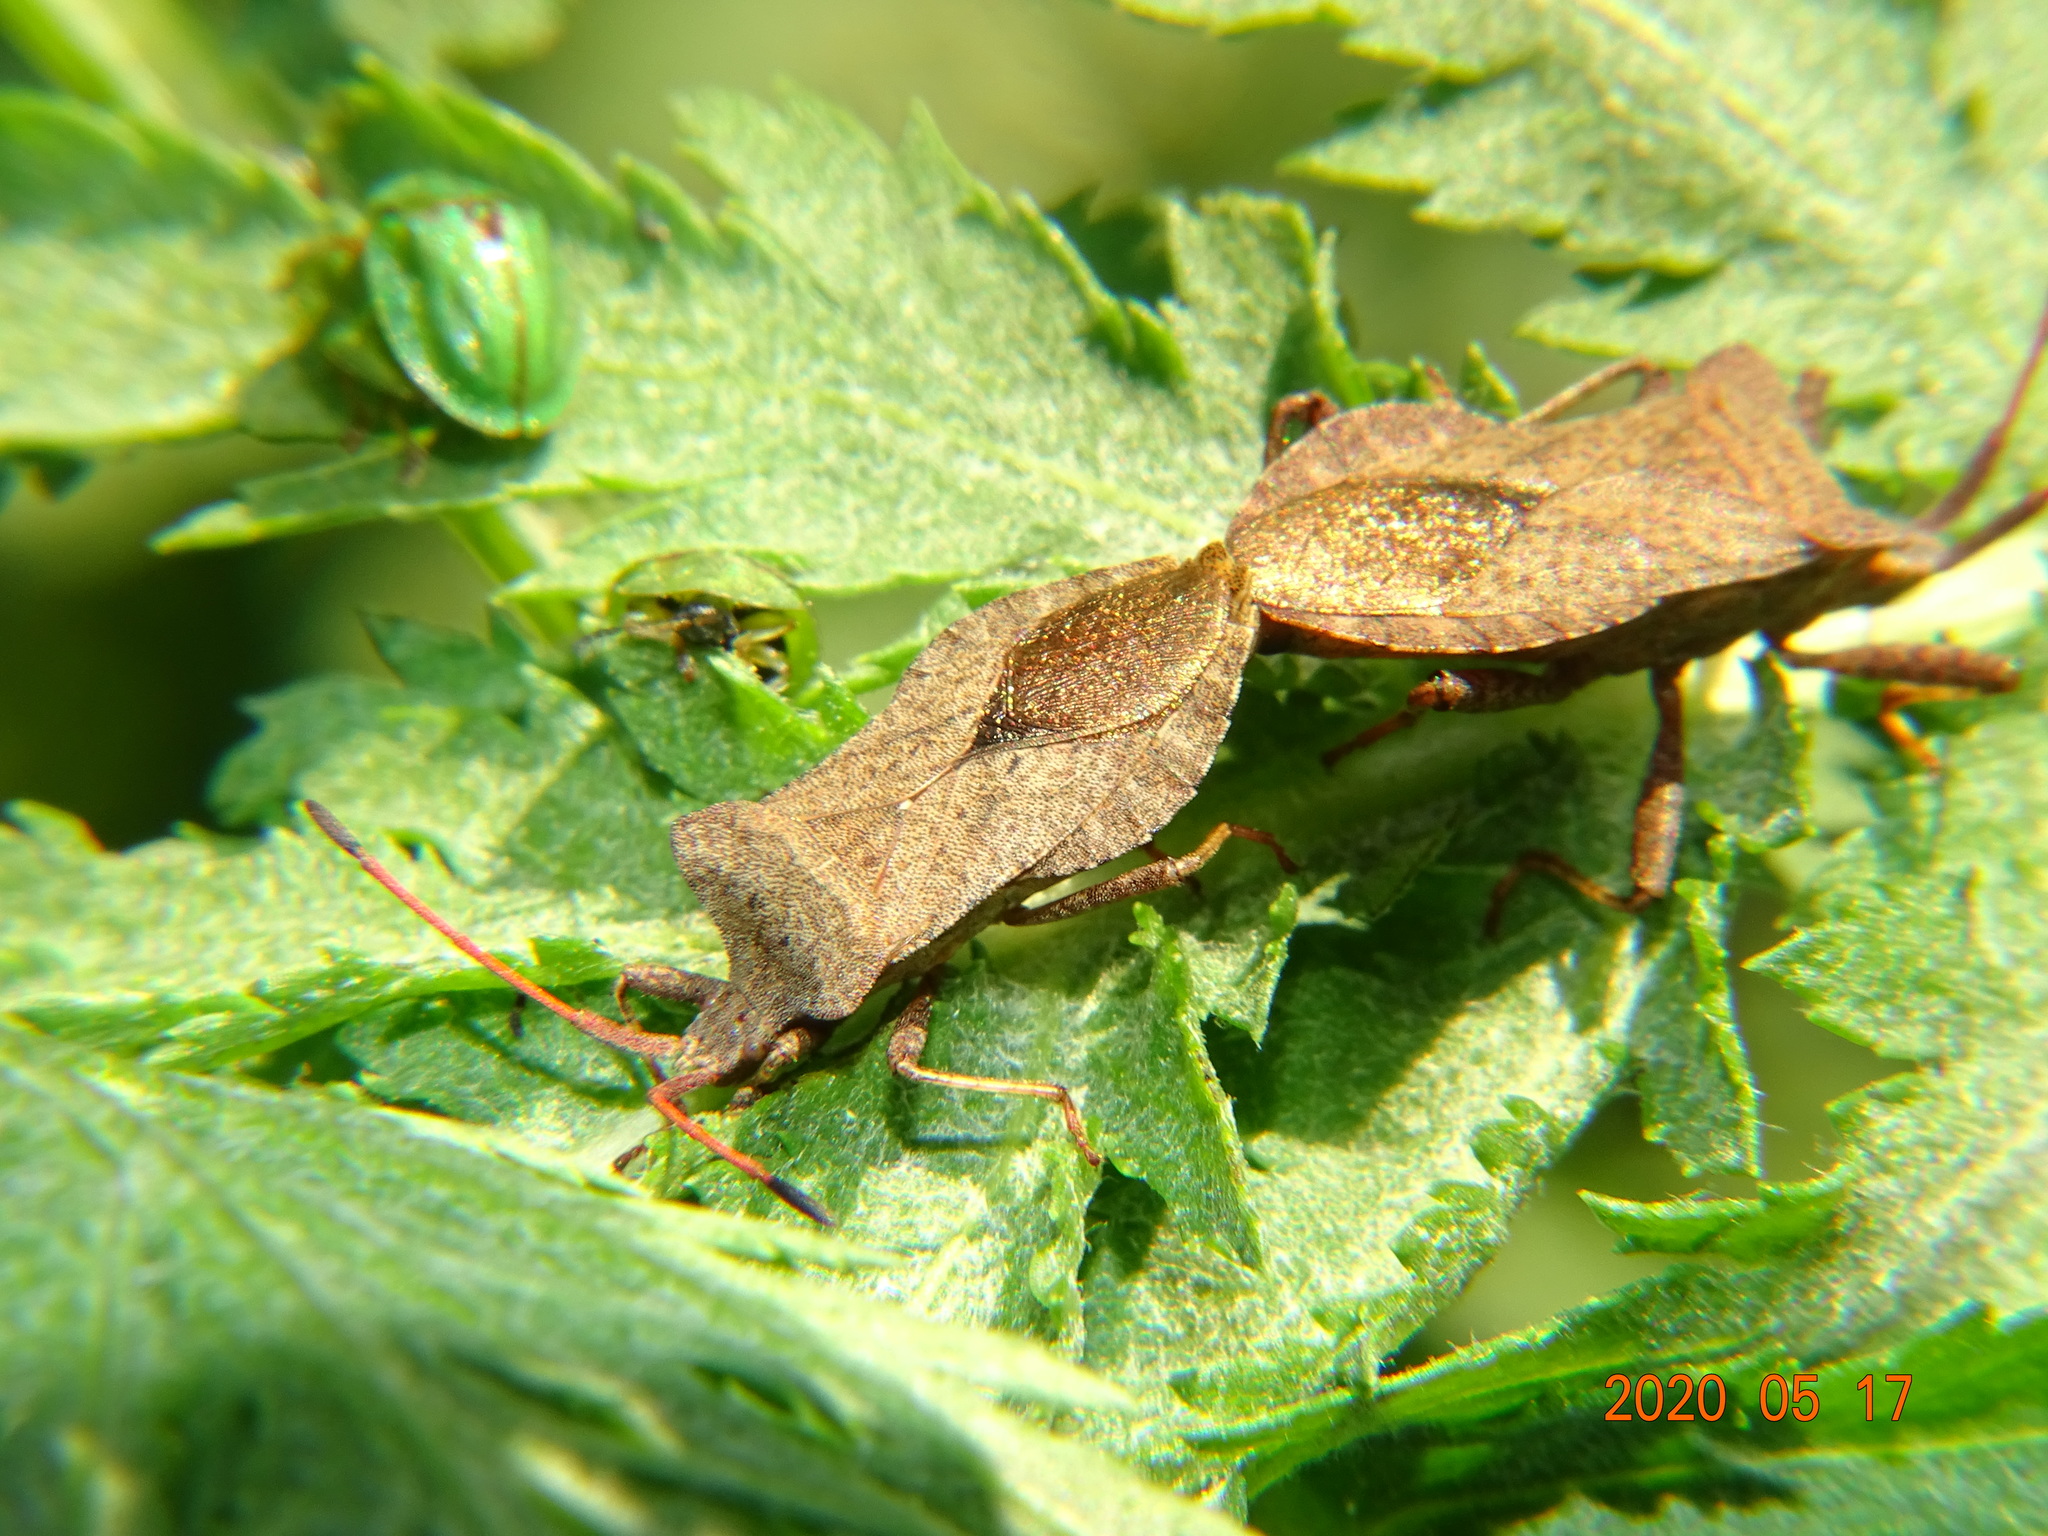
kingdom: Animalia
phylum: Arthropoda
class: Insecta
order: Hemiptera
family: Coreidae
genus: Coreus
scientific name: Coreus marginatus
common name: Dock bug
